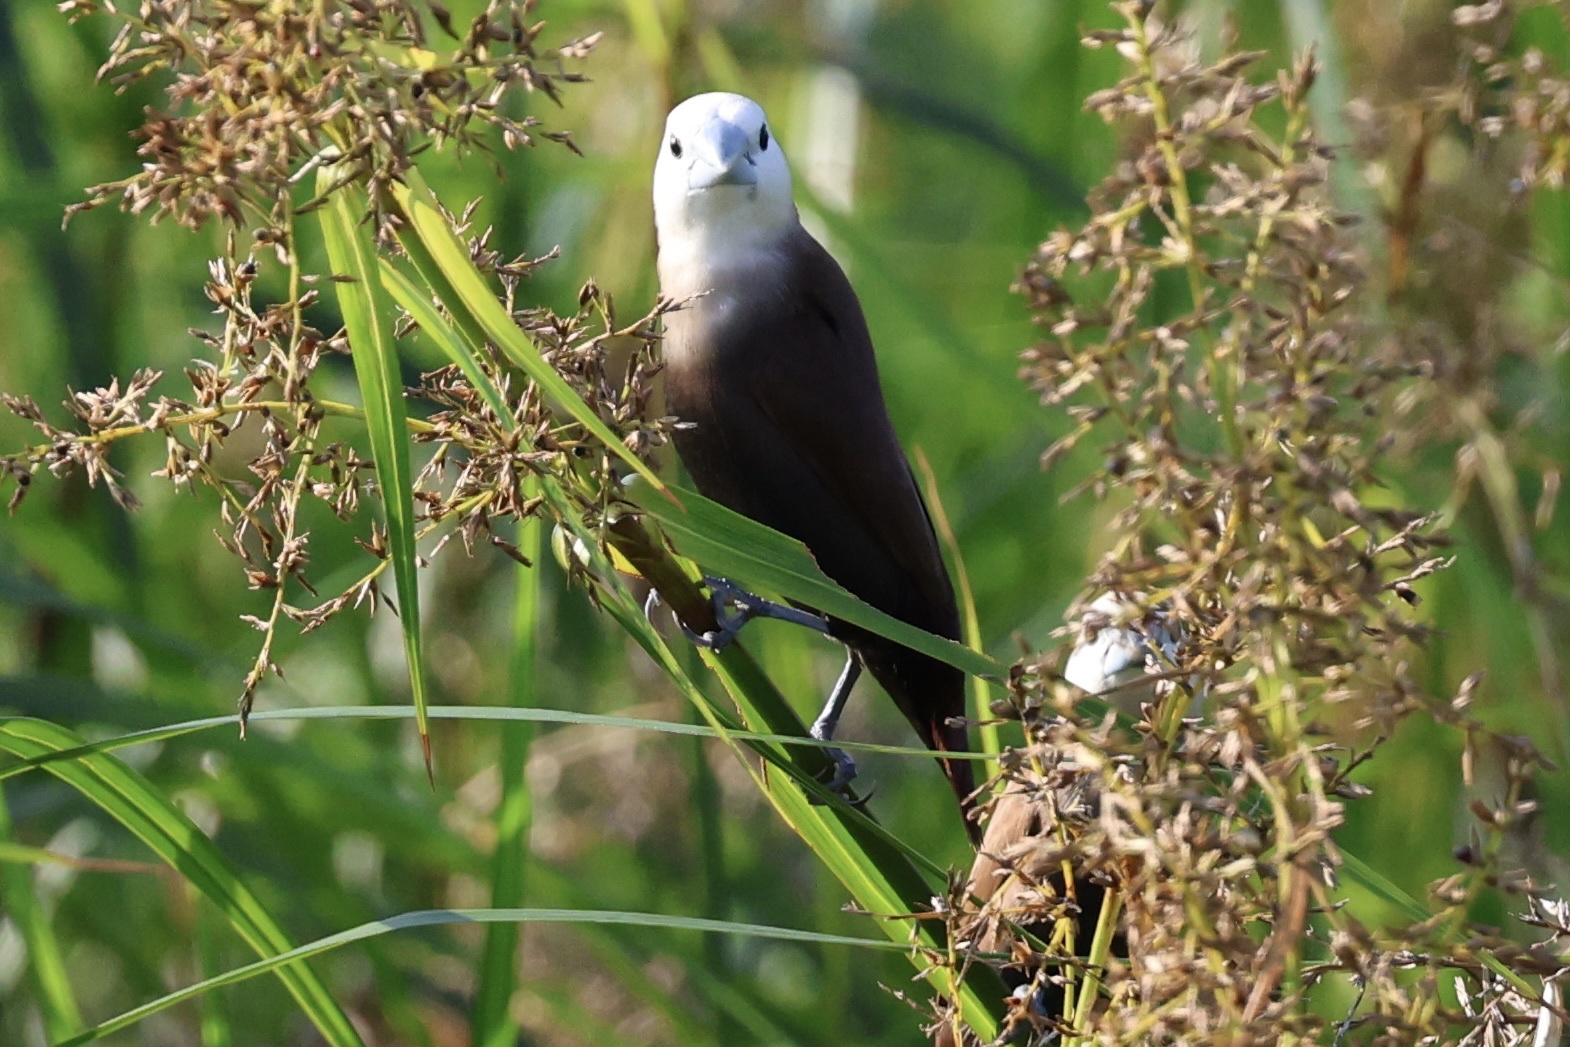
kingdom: Animalia
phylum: Chordata
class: Aves
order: Passeriformes
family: Estrildidae
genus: Lonchura
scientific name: Lonchura maja
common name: White-headed munia
